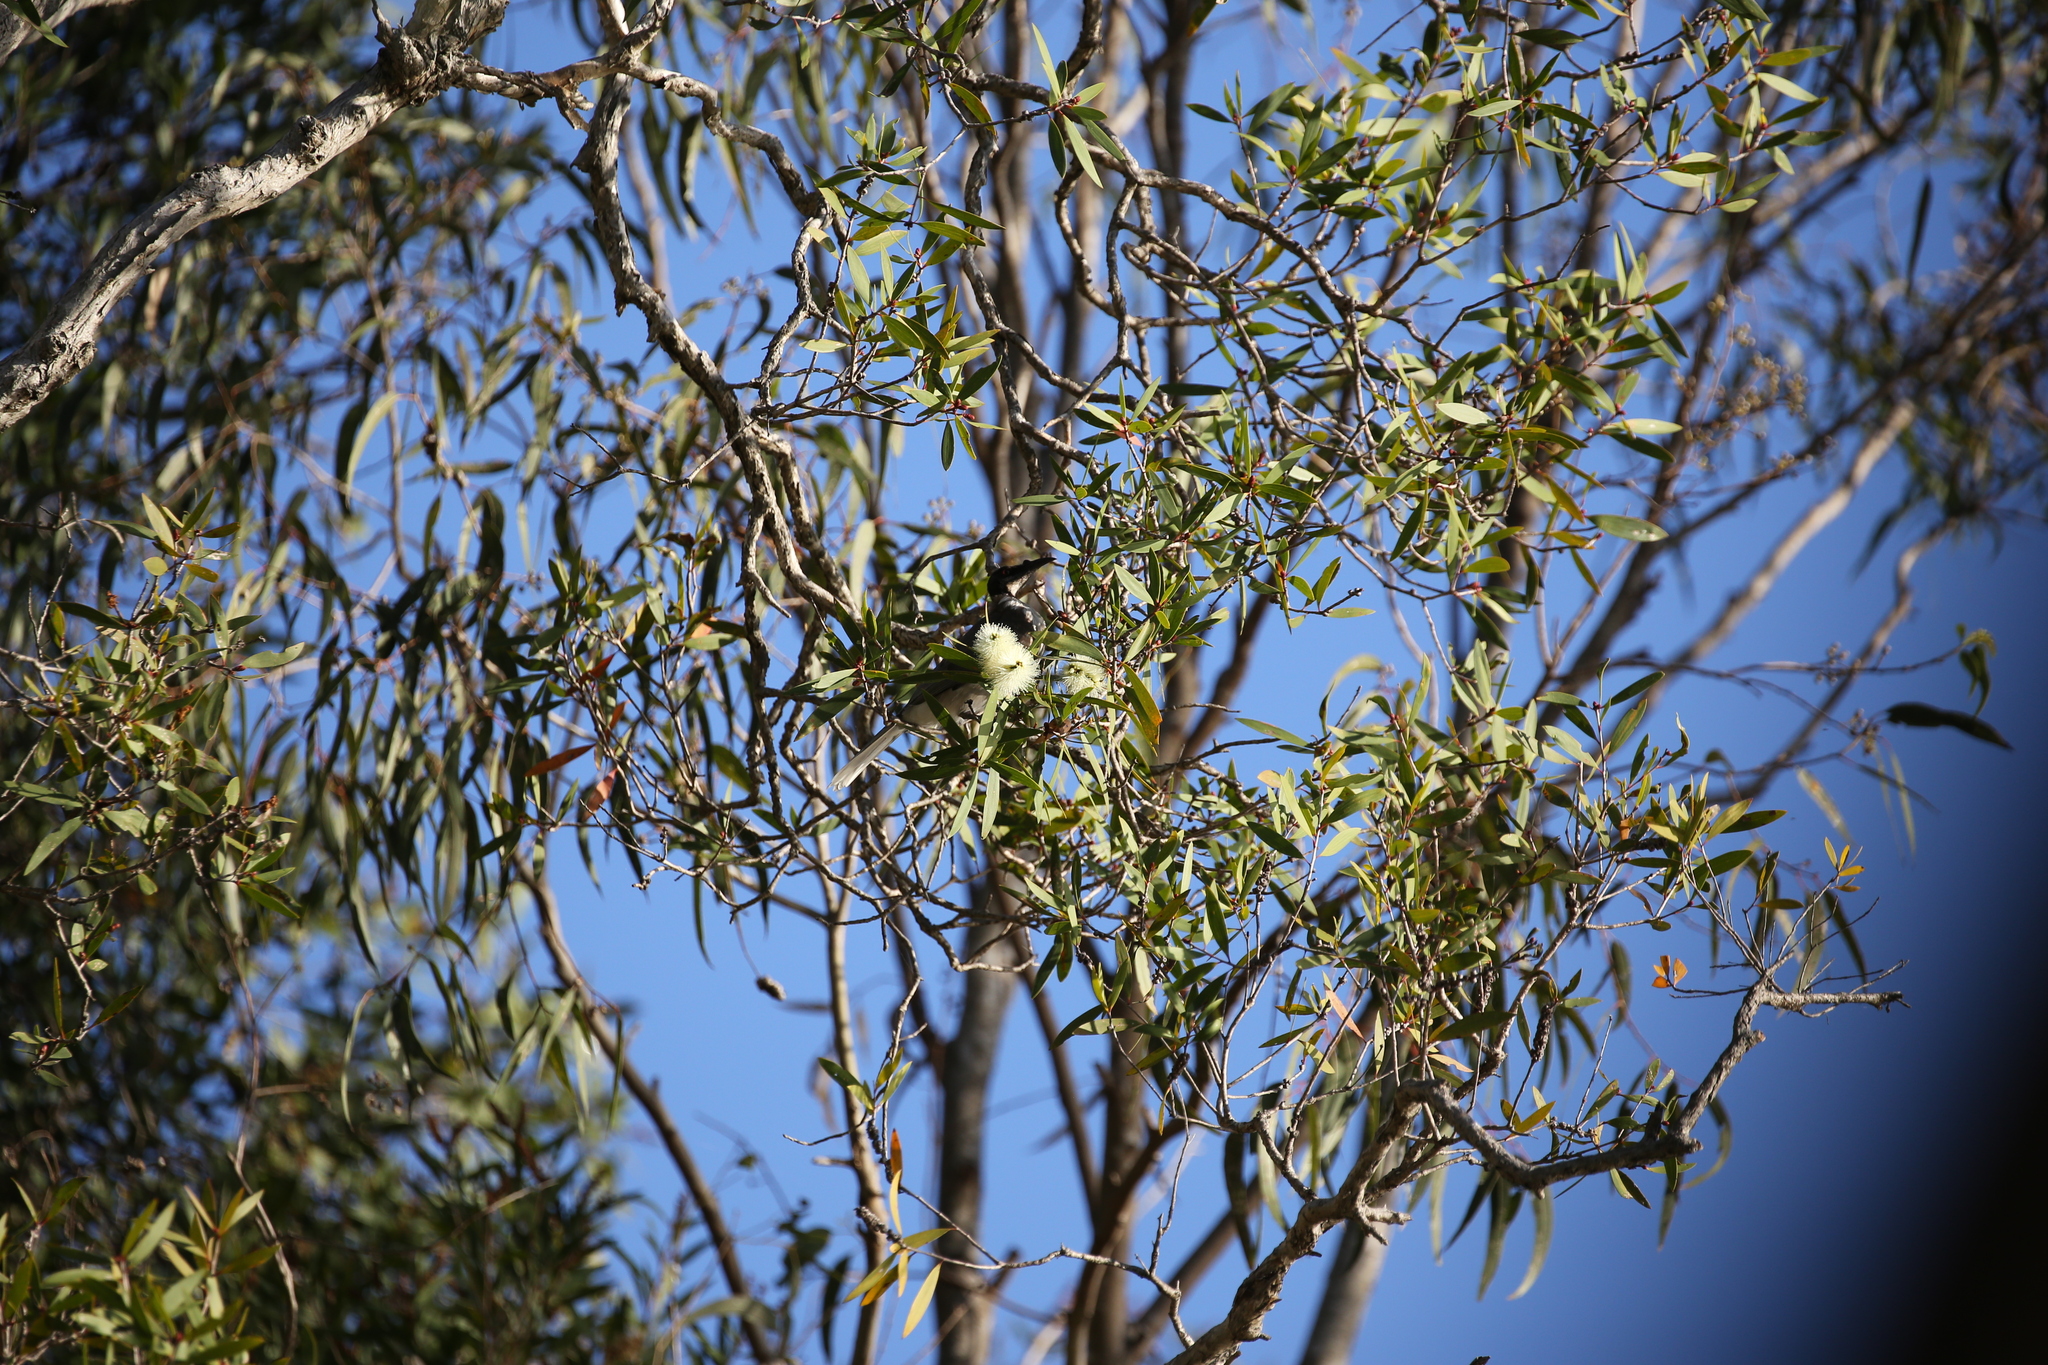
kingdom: Animalia
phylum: Chordata
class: Aves
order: Passeriformes
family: Meliphagidae
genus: Philemon
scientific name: Philemon corniculatus
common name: Noisy friarbird
